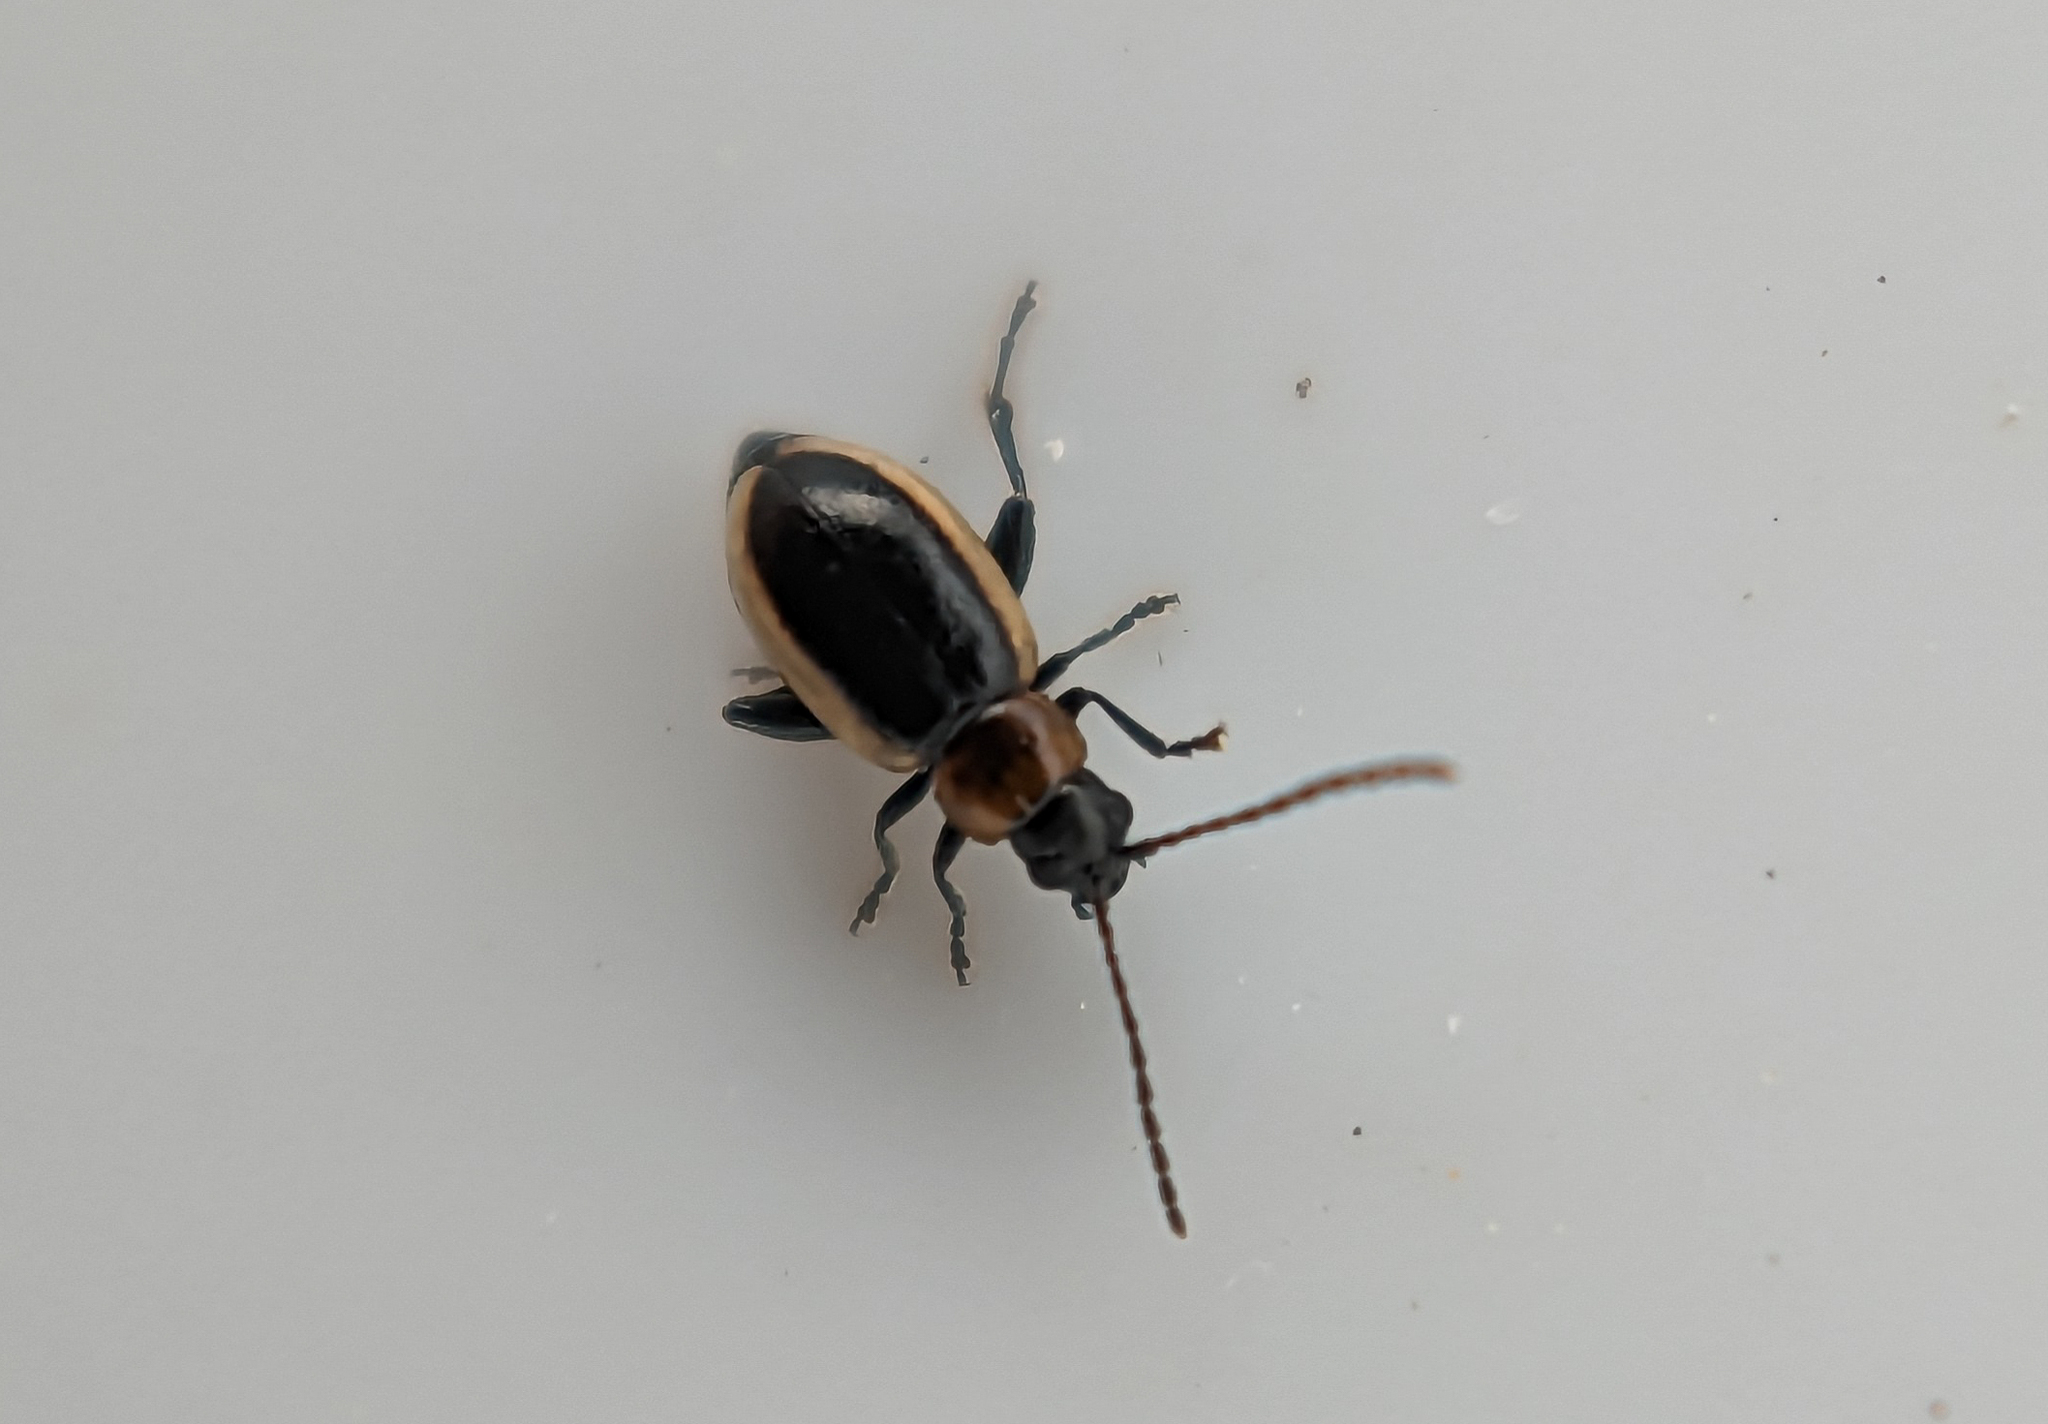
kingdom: Animalia
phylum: Arthropoda
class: Insecta
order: Coleoptera
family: Chrysomelidae
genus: Longitarsus
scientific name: Longitarsus dorsalis
